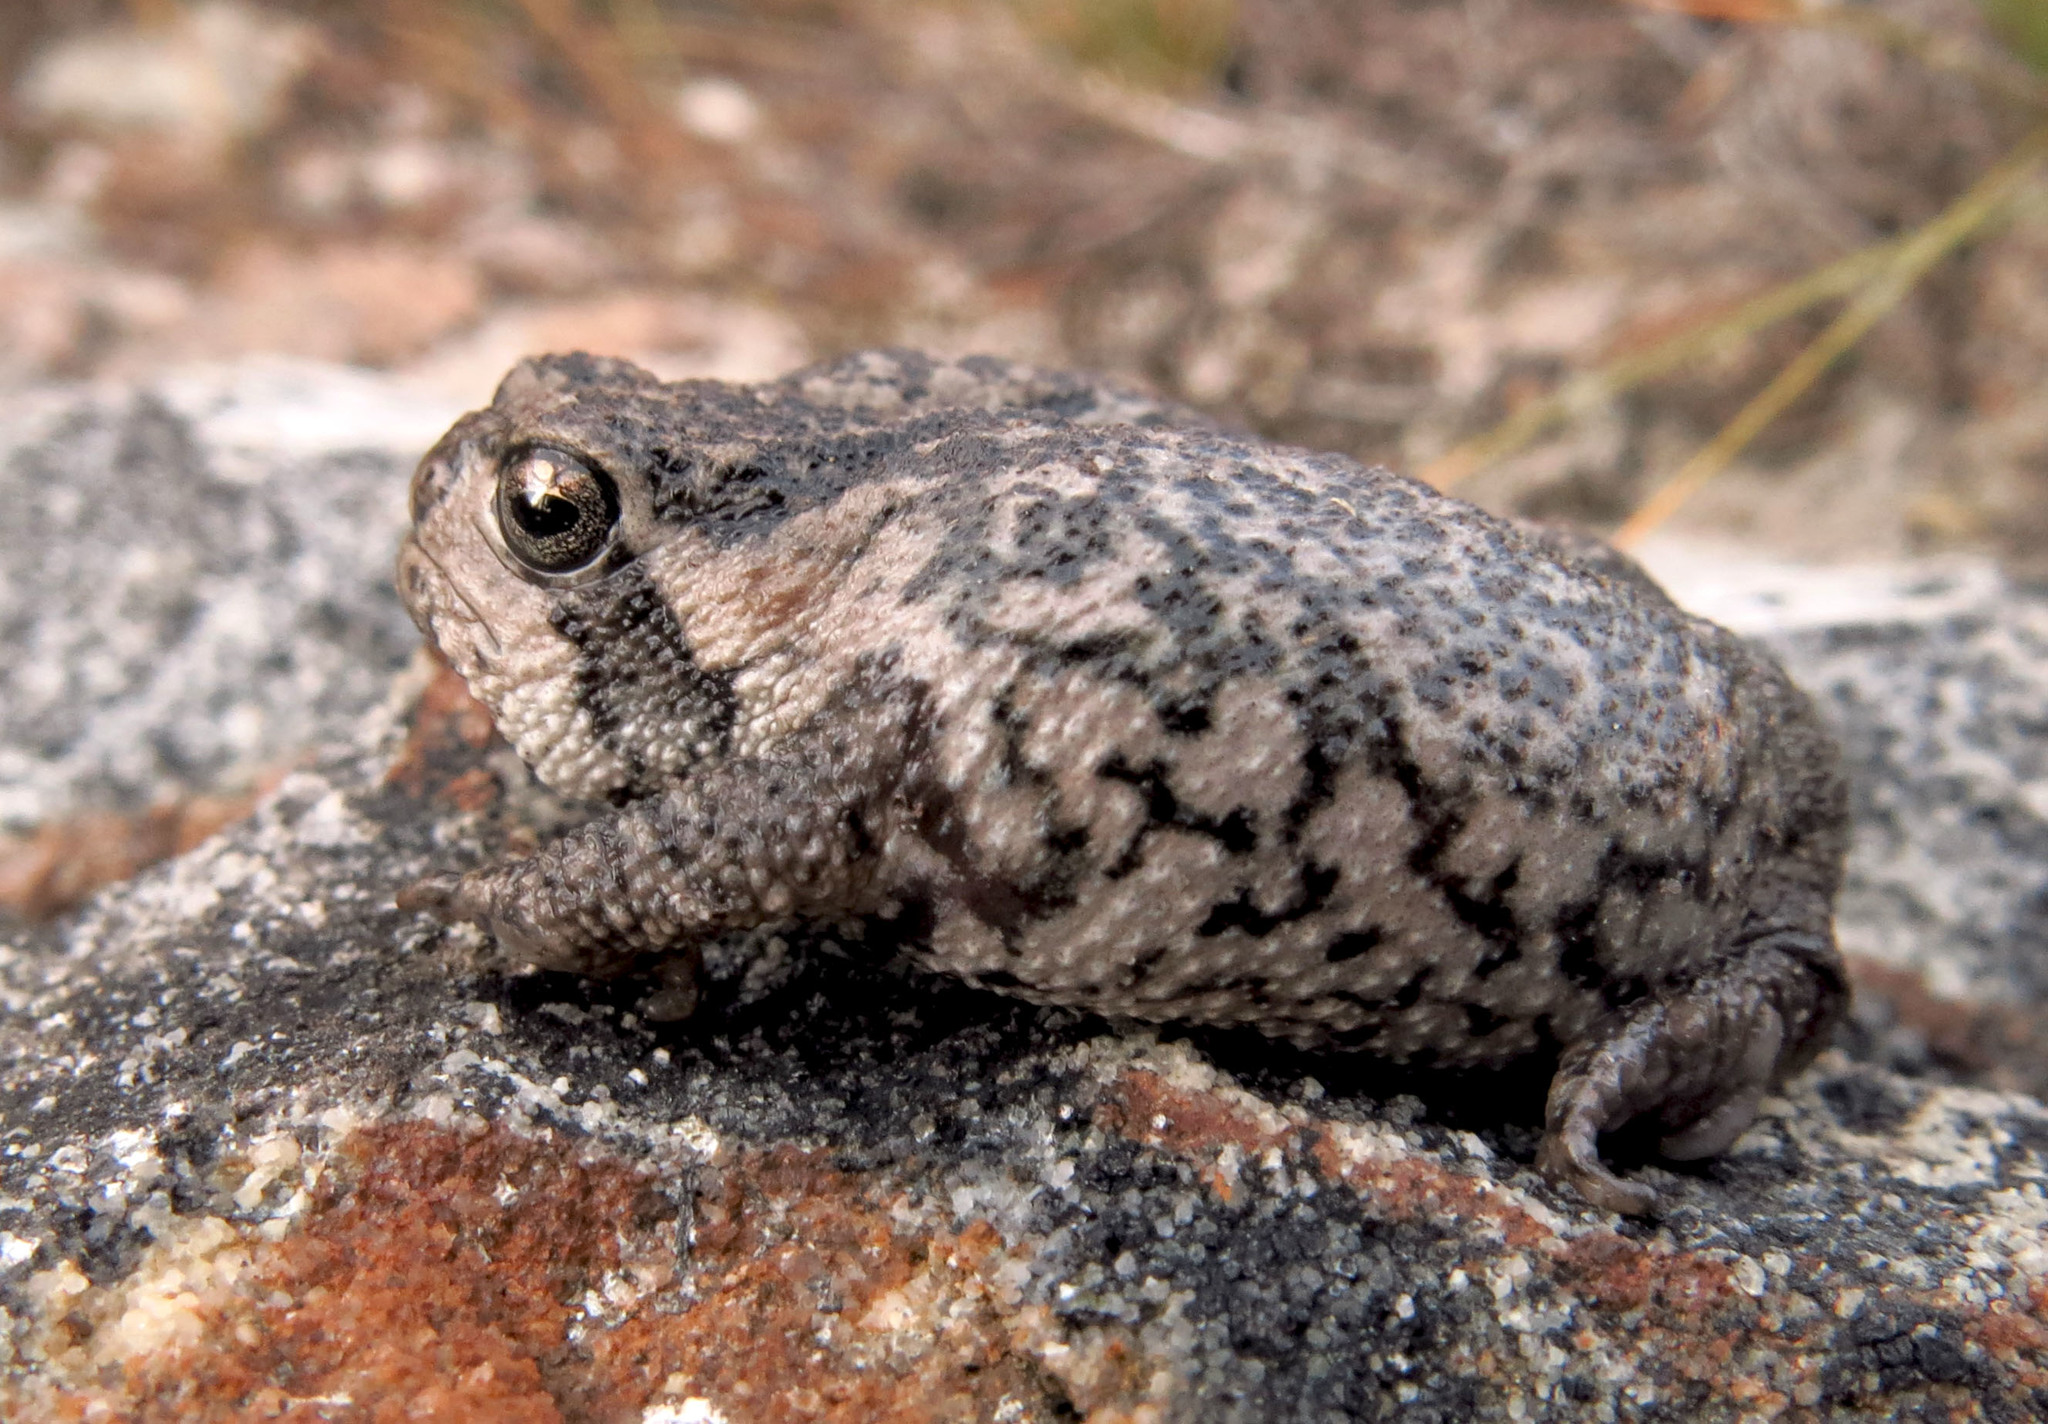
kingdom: Animalia
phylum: Chordata
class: Amphibia
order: Anura
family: Brevicipitidae
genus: Breviceps
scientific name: Breviceps montanus
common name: Mountain rain frog
